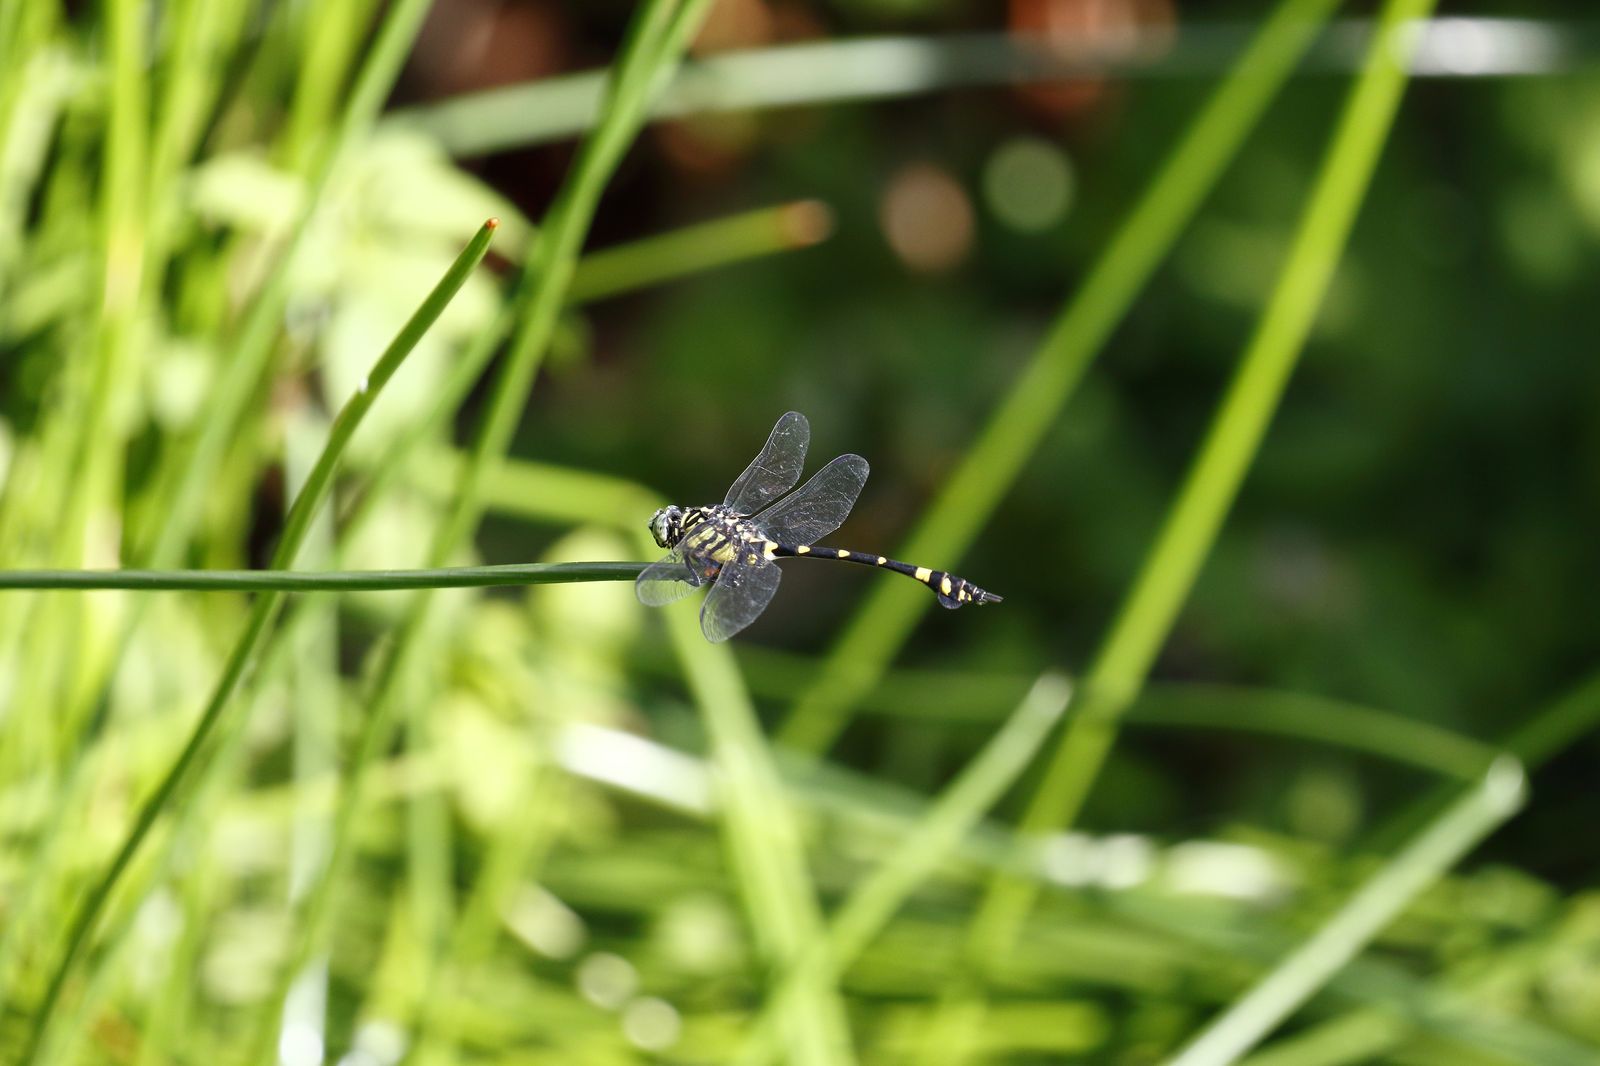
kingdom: Animalia
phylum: Arthropoda
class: Insecta
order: Odonata
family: Gomphidae
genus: Ictinogomphus
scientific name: Ictinogomphus rapax
